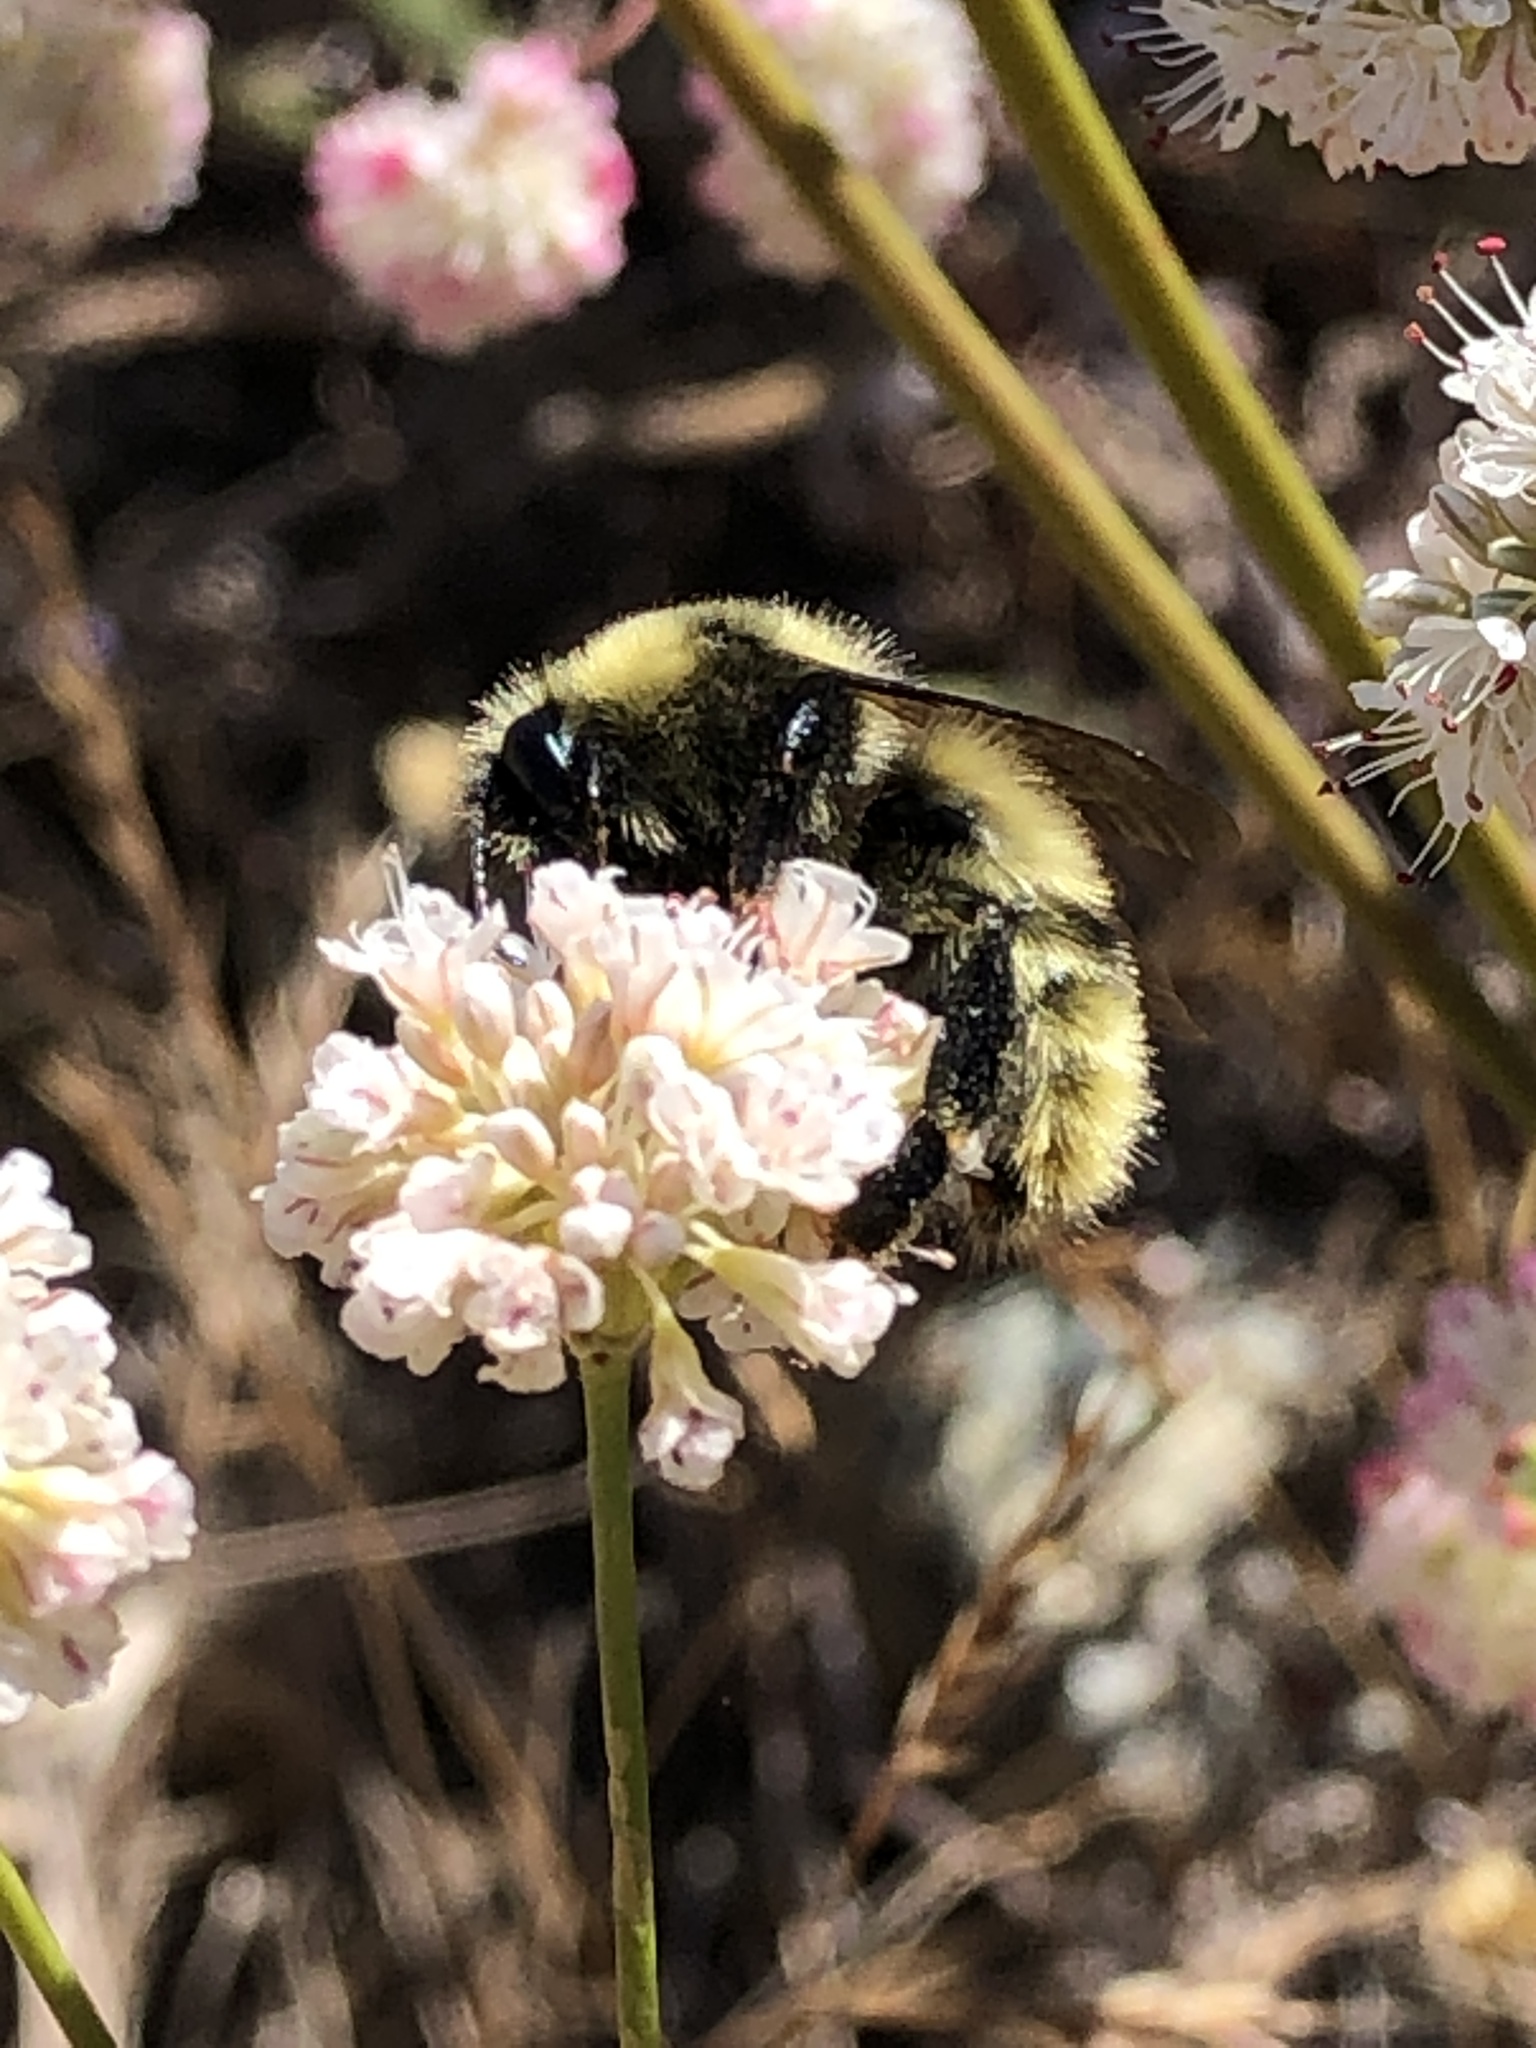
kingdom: Animalia
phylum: Arthropoda
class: Insecta
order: Hymenoptera
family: Apidae
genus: Bombus
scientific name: Bombus rufocinctus
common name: Red-belted bumble bee
